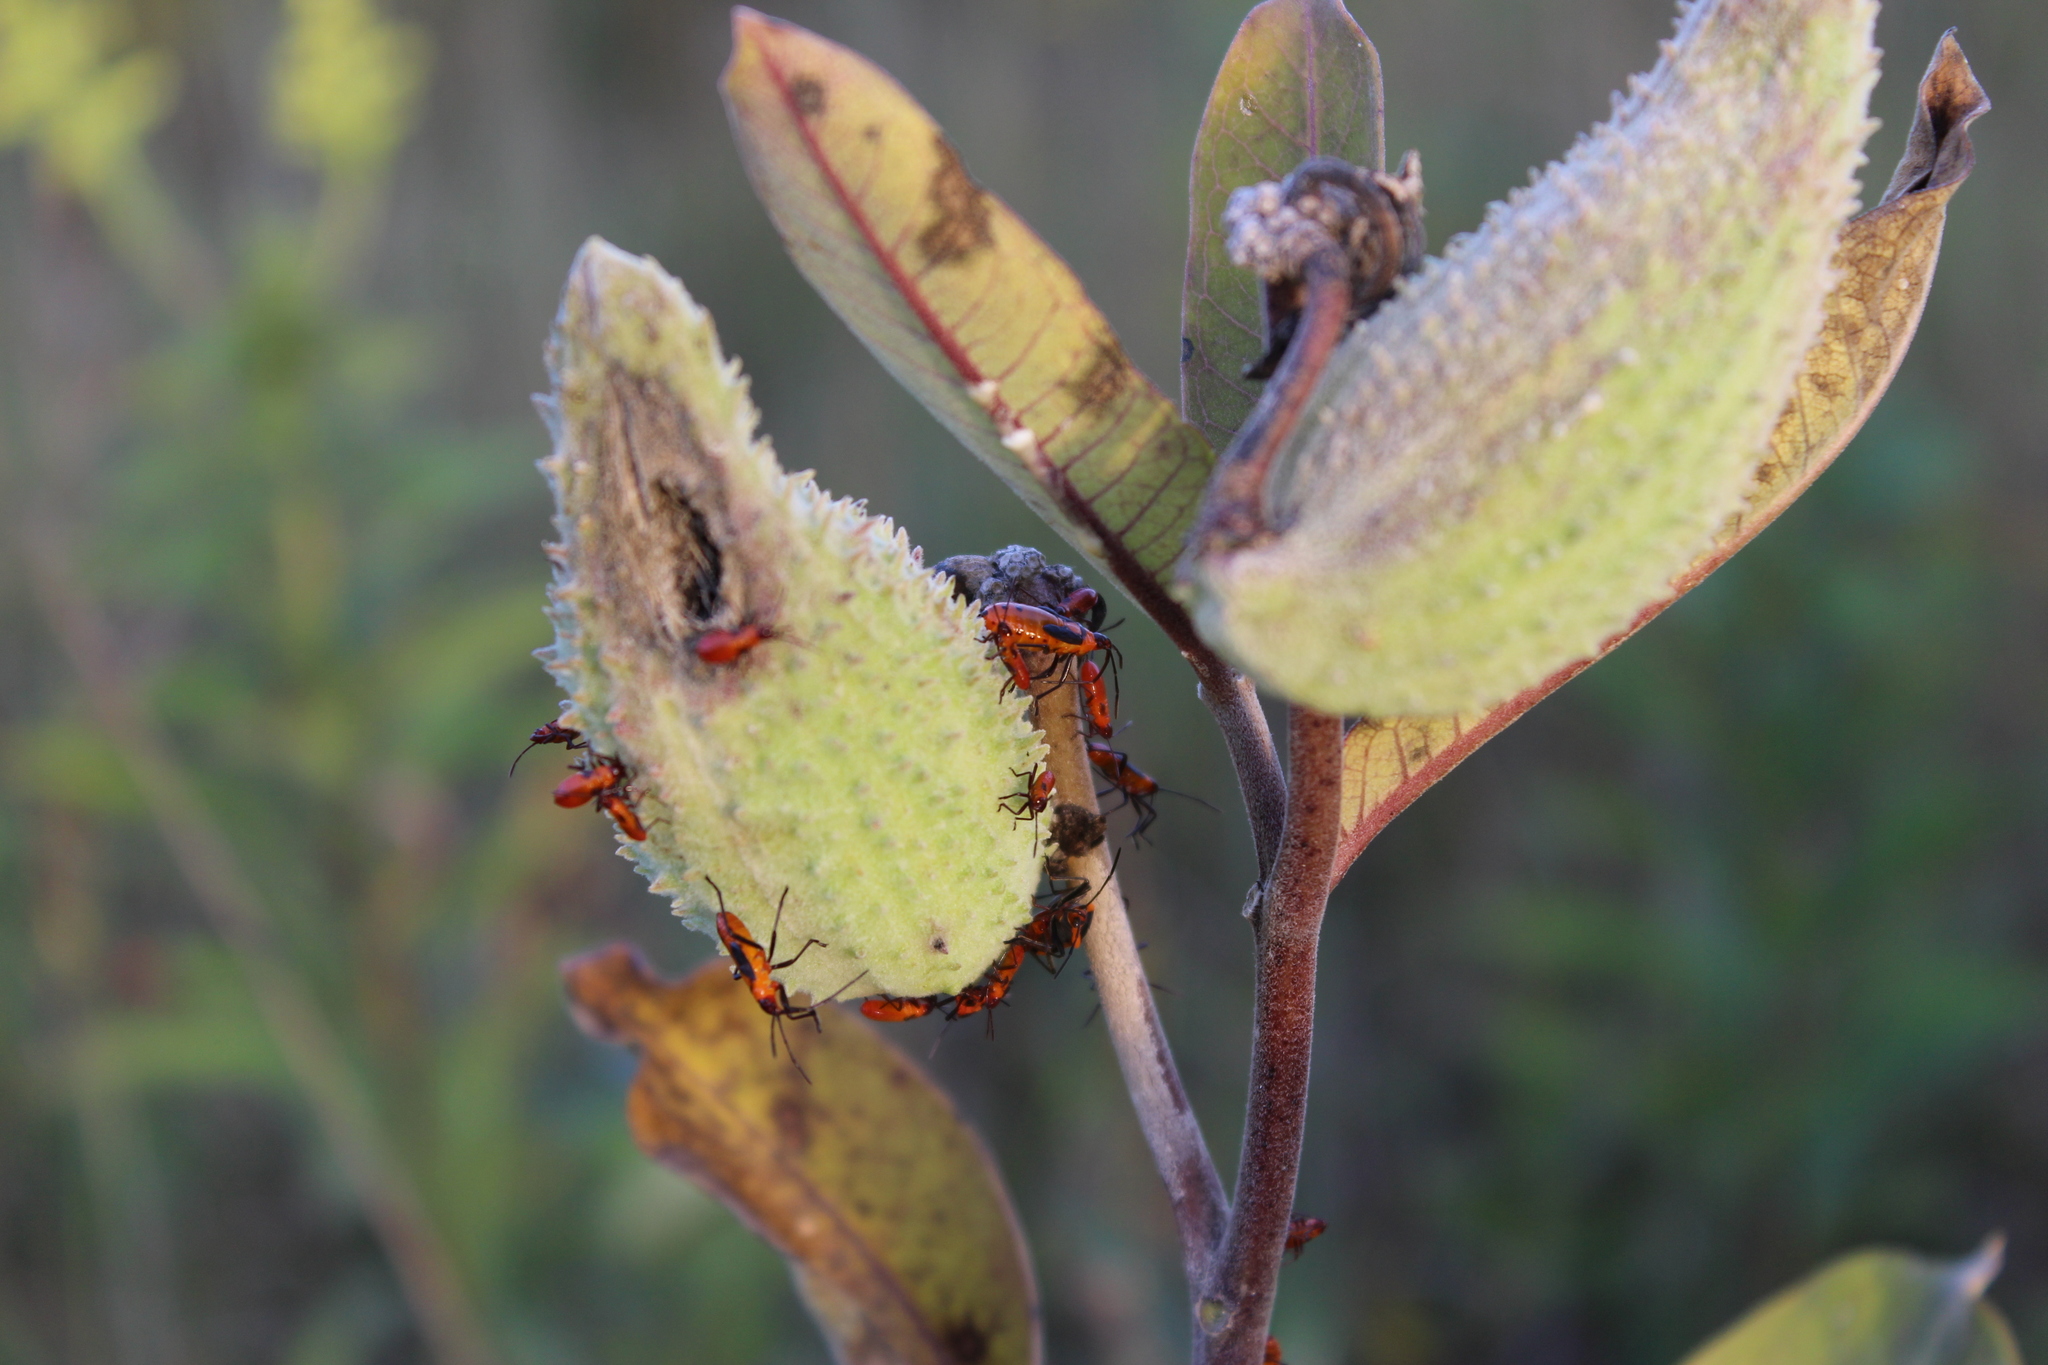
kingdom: Animalia
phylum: Arthropoda
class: Insecta
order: Hemiptera
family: Lygaeidae
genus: Oncopeltus
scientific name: Oncopeltus fasciatus
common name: Large milkweed bug
